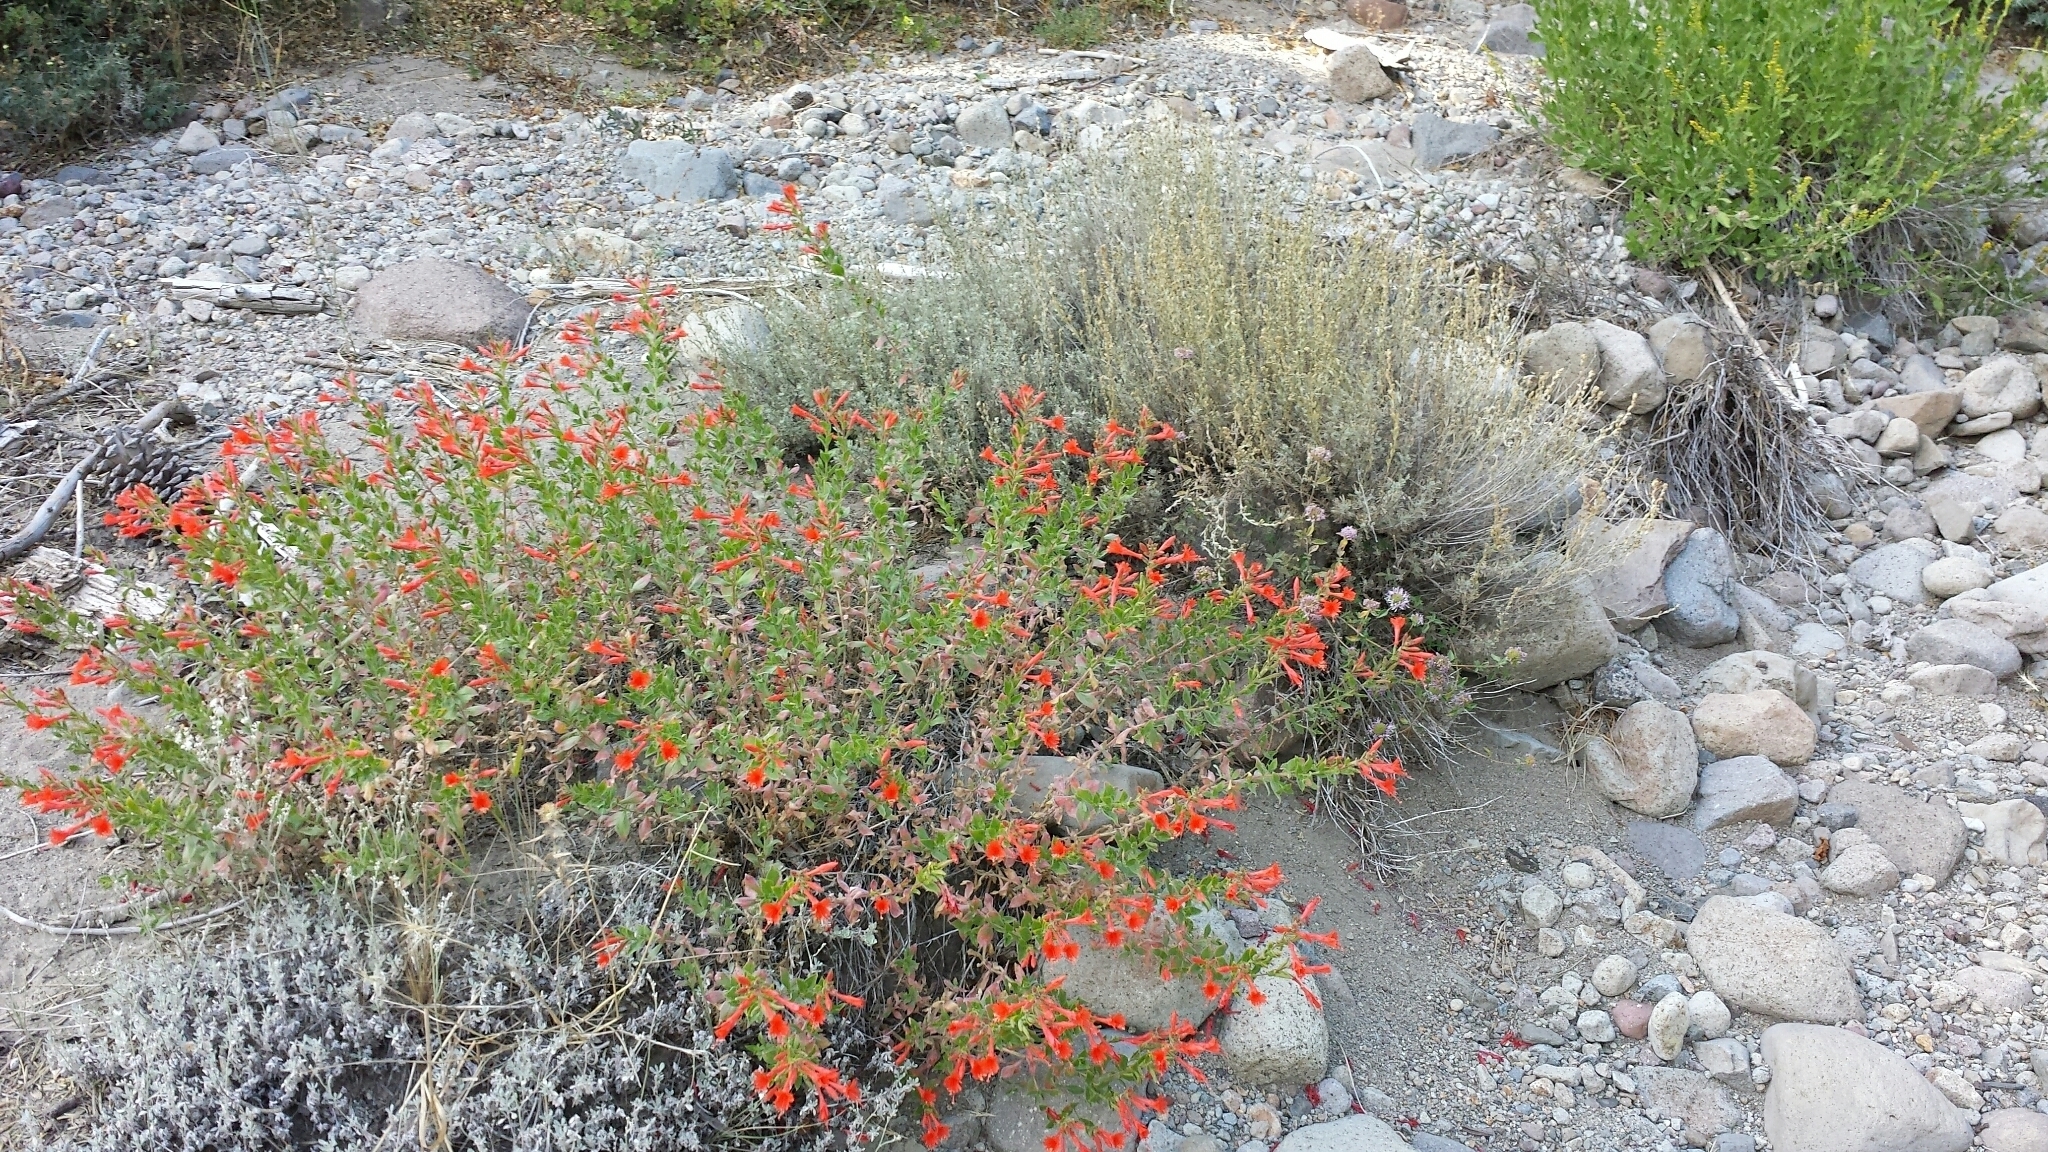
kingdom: Plantae
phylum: Tracheophyta
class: Magnoliopsida
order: Myrtales
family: Onagraceae
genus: Epilobium
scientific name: Epilobium canum
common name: California-fuchsia
